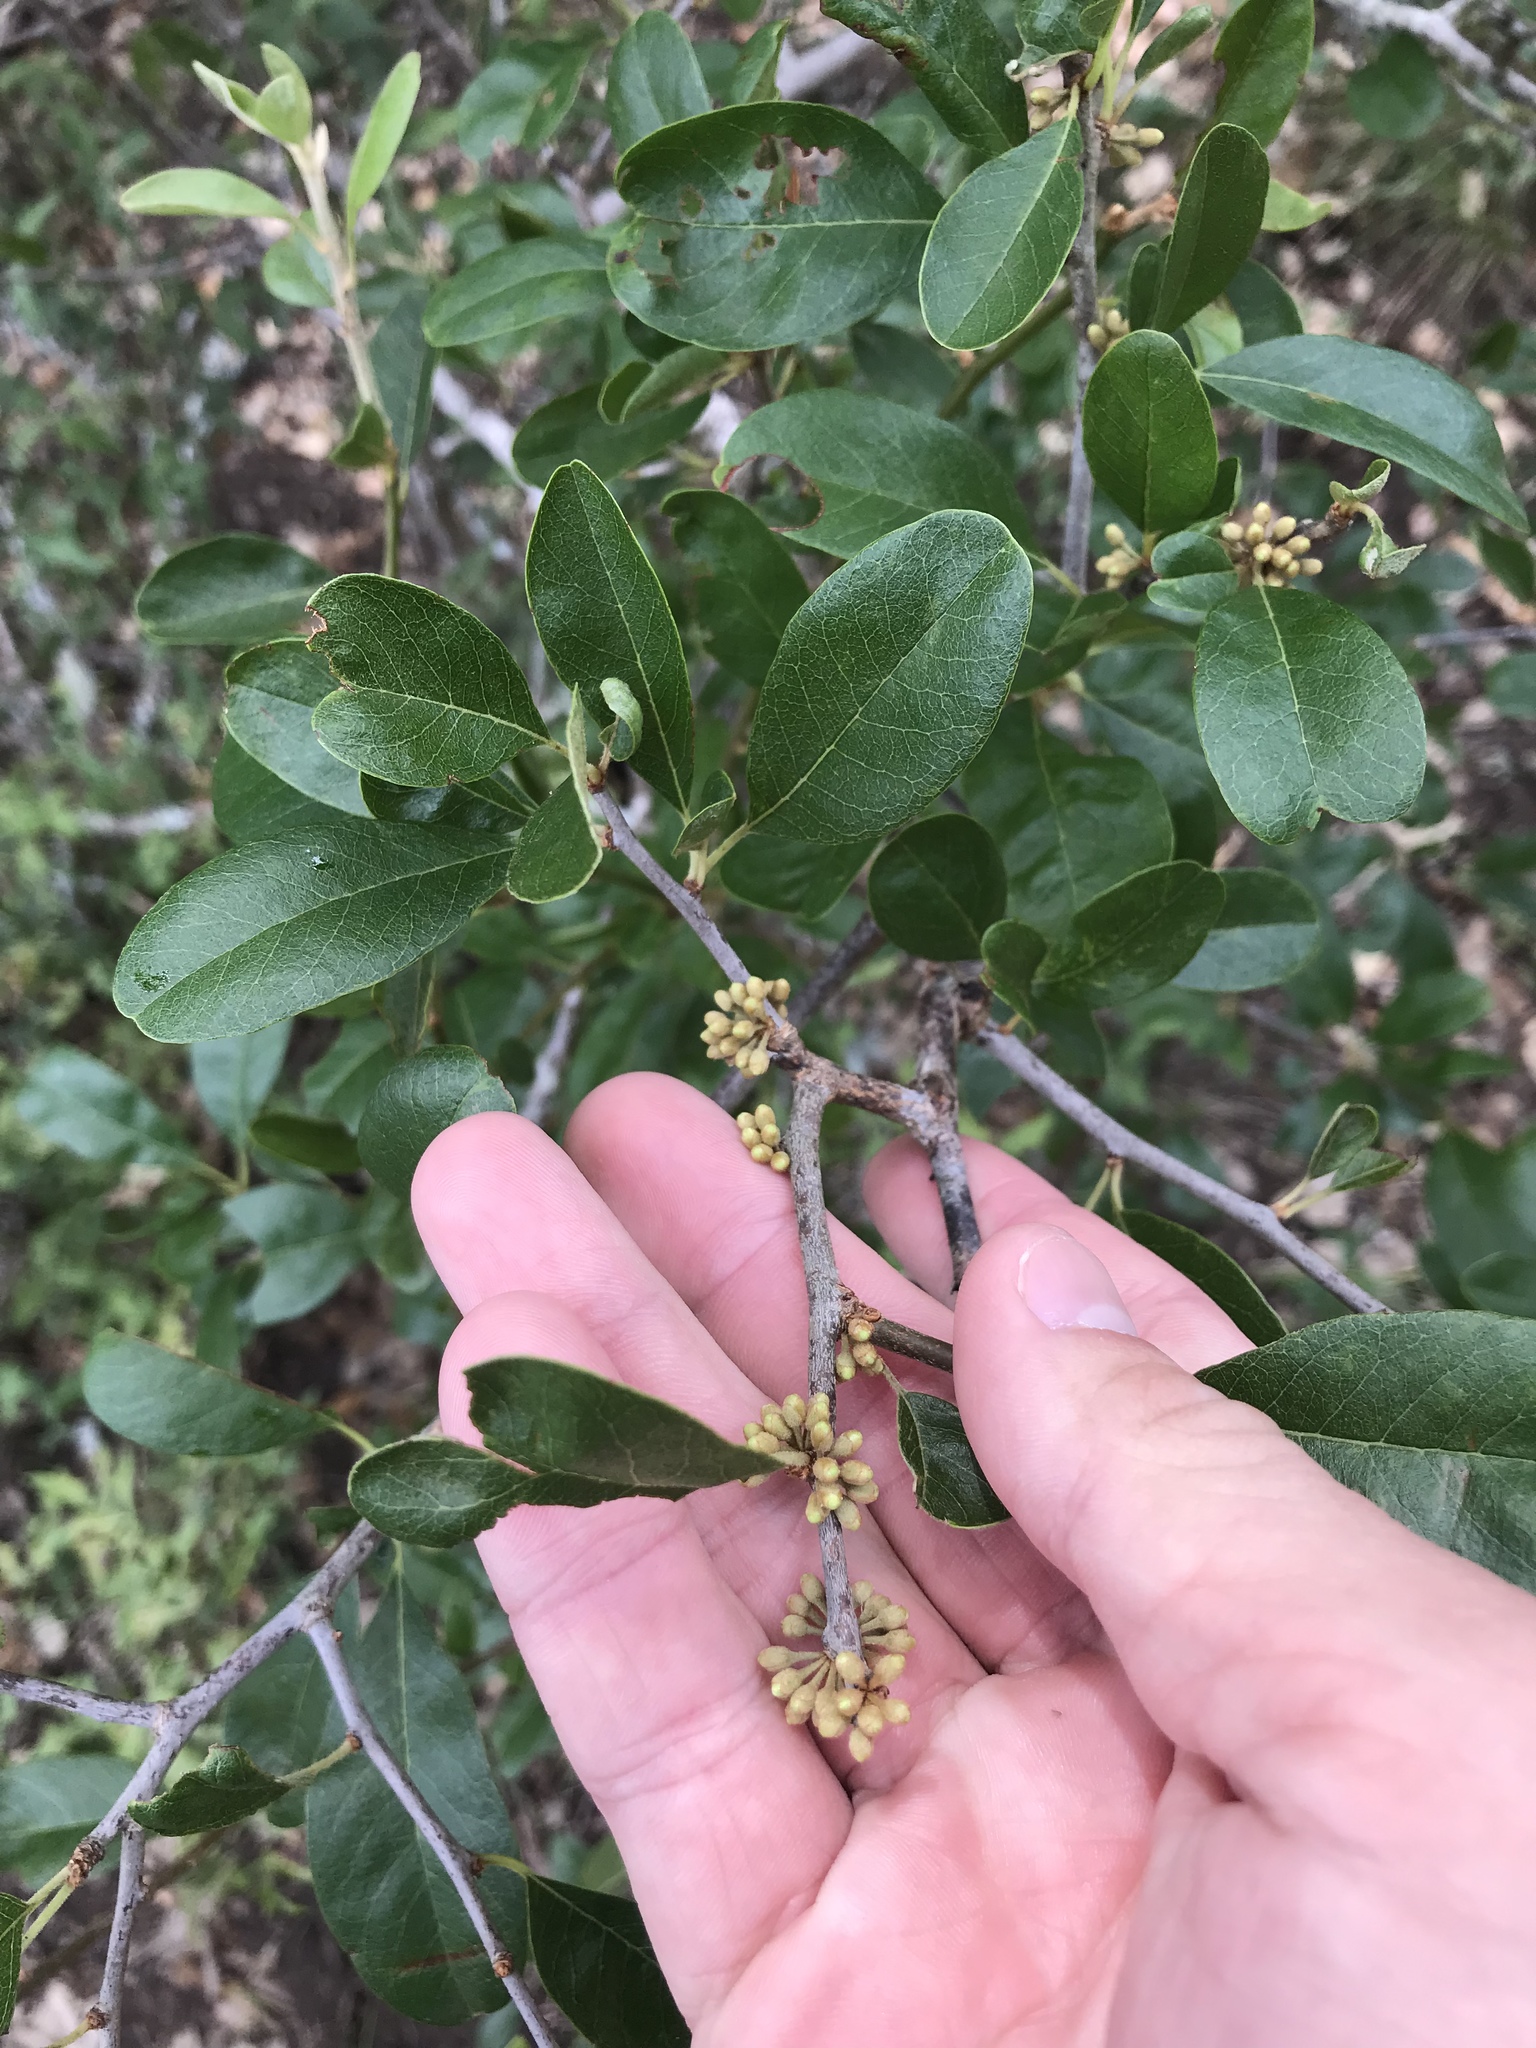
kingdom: Plantae
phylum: Tracheophyta
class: Magnoliopsida
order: Ericales
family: Sapotaceae
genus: Sideroxylon
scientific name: Sideroxylon lanuginosum
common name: Chittamwood
